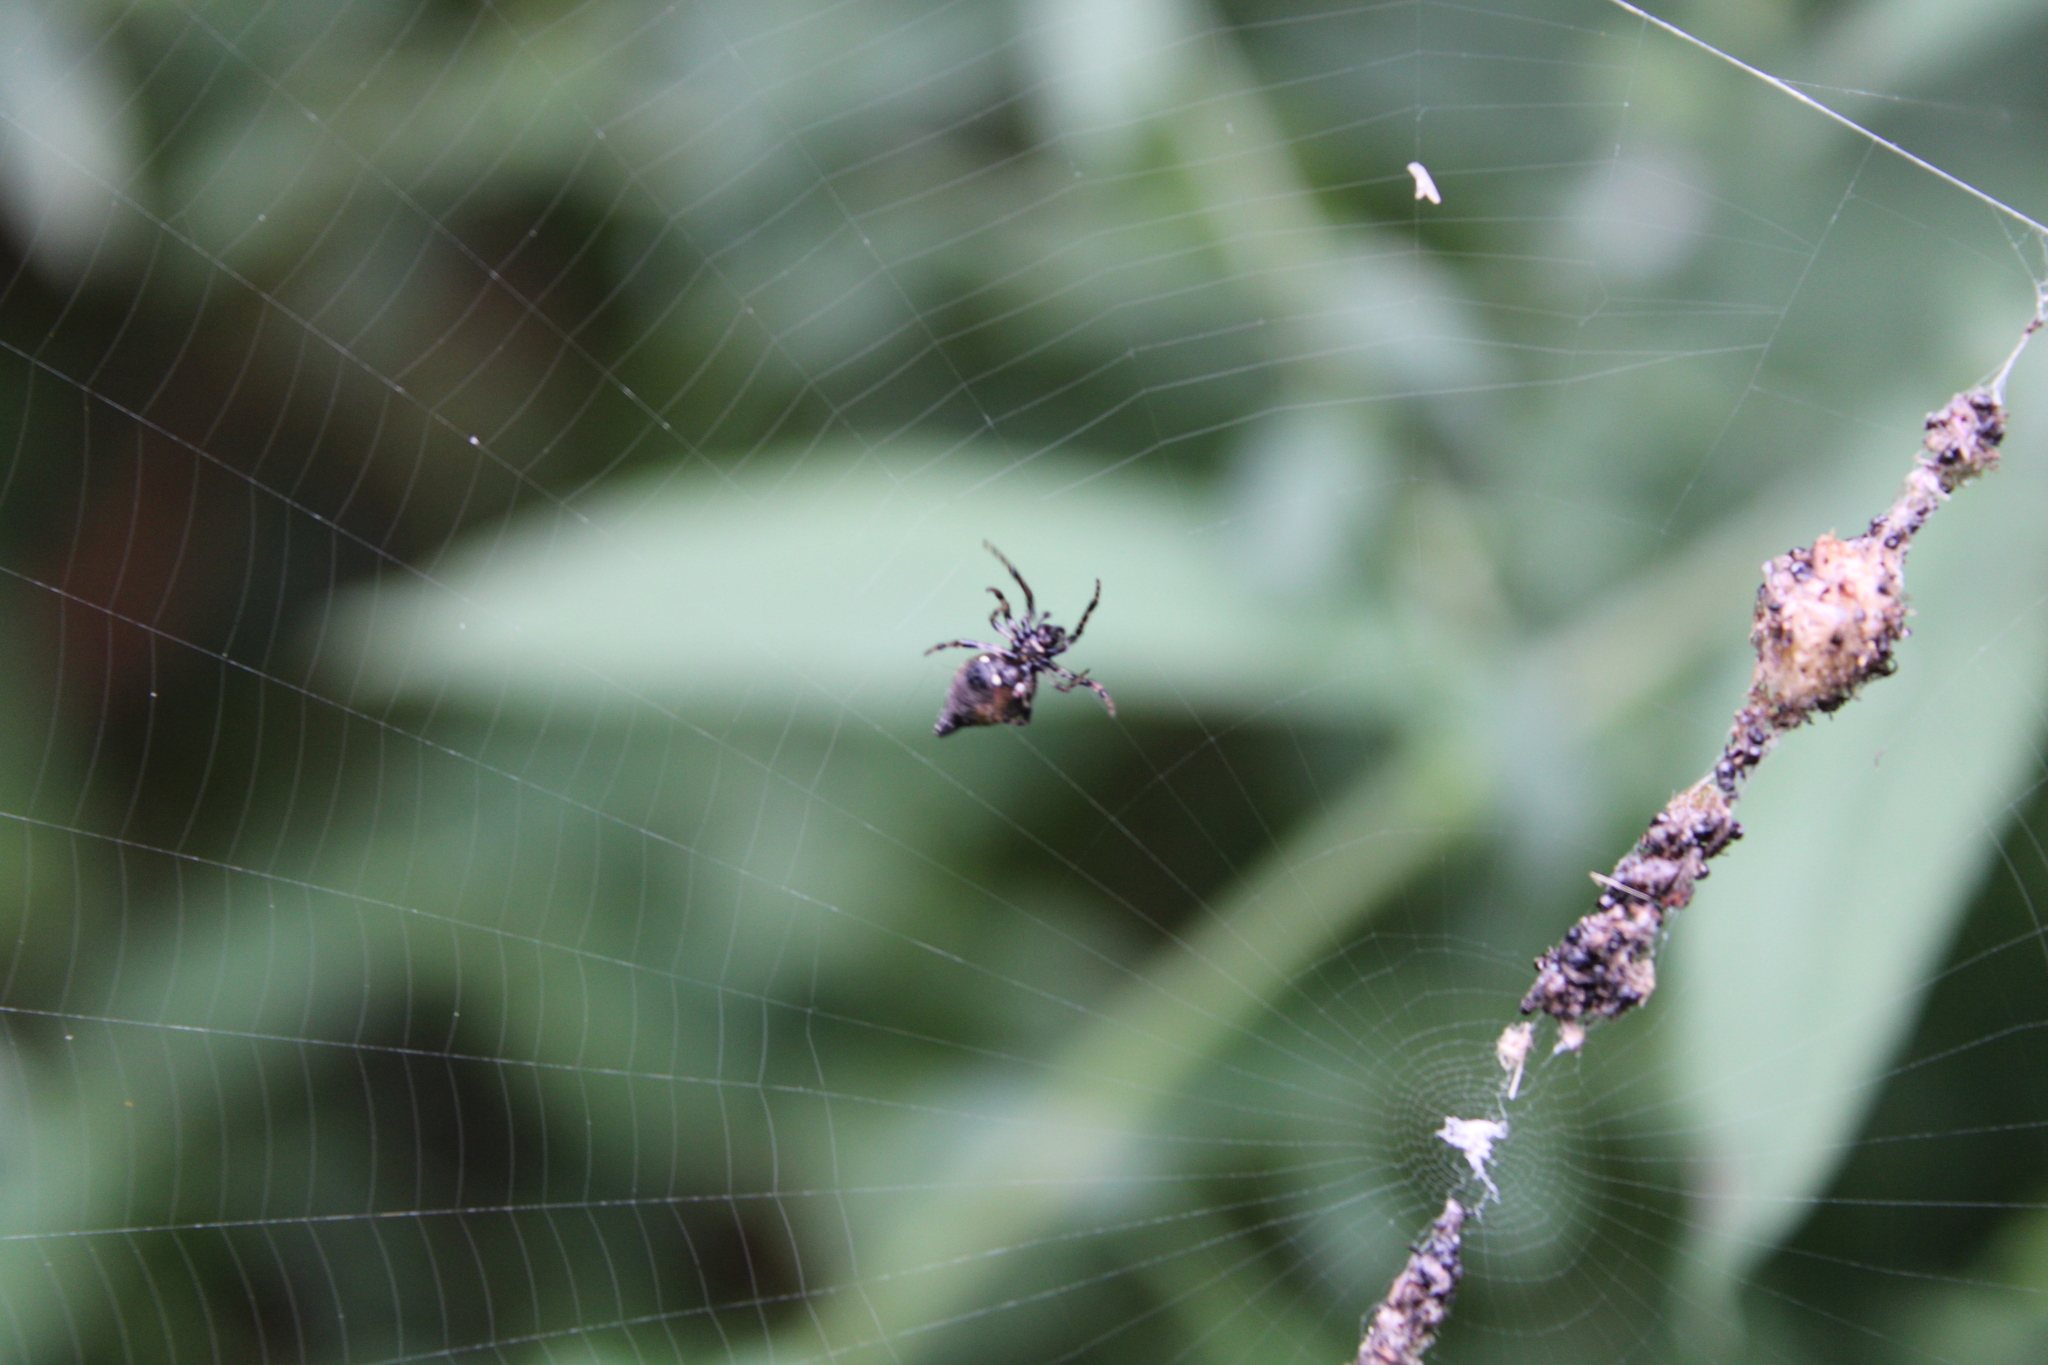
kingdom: Animalia
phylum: Arthropoda
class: Arachnida
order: Araneae
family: Araneidae
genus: Cyclosa
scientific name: Cyclosa turbinata
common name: Orb weavers
